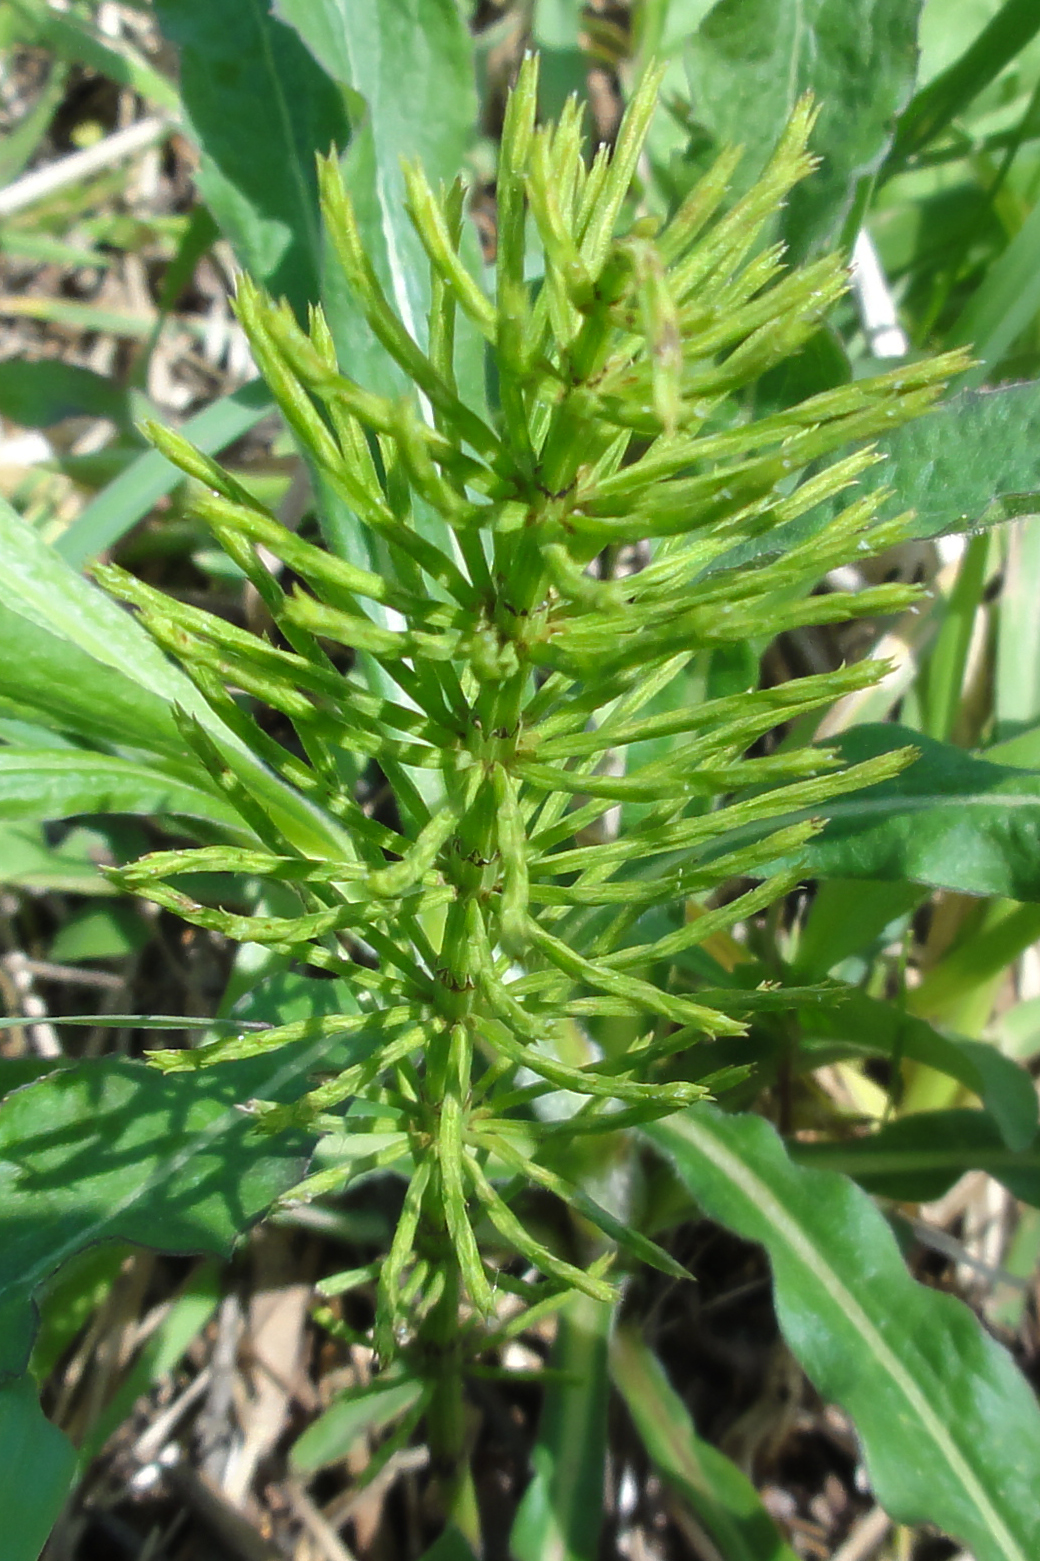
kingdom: Plantae
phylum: Tracheophyta
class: Polypodiopsida
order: Equisetales
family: Equisetaceae
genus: Equisetum
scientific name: Equisetum arvense
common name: Field horsetail
